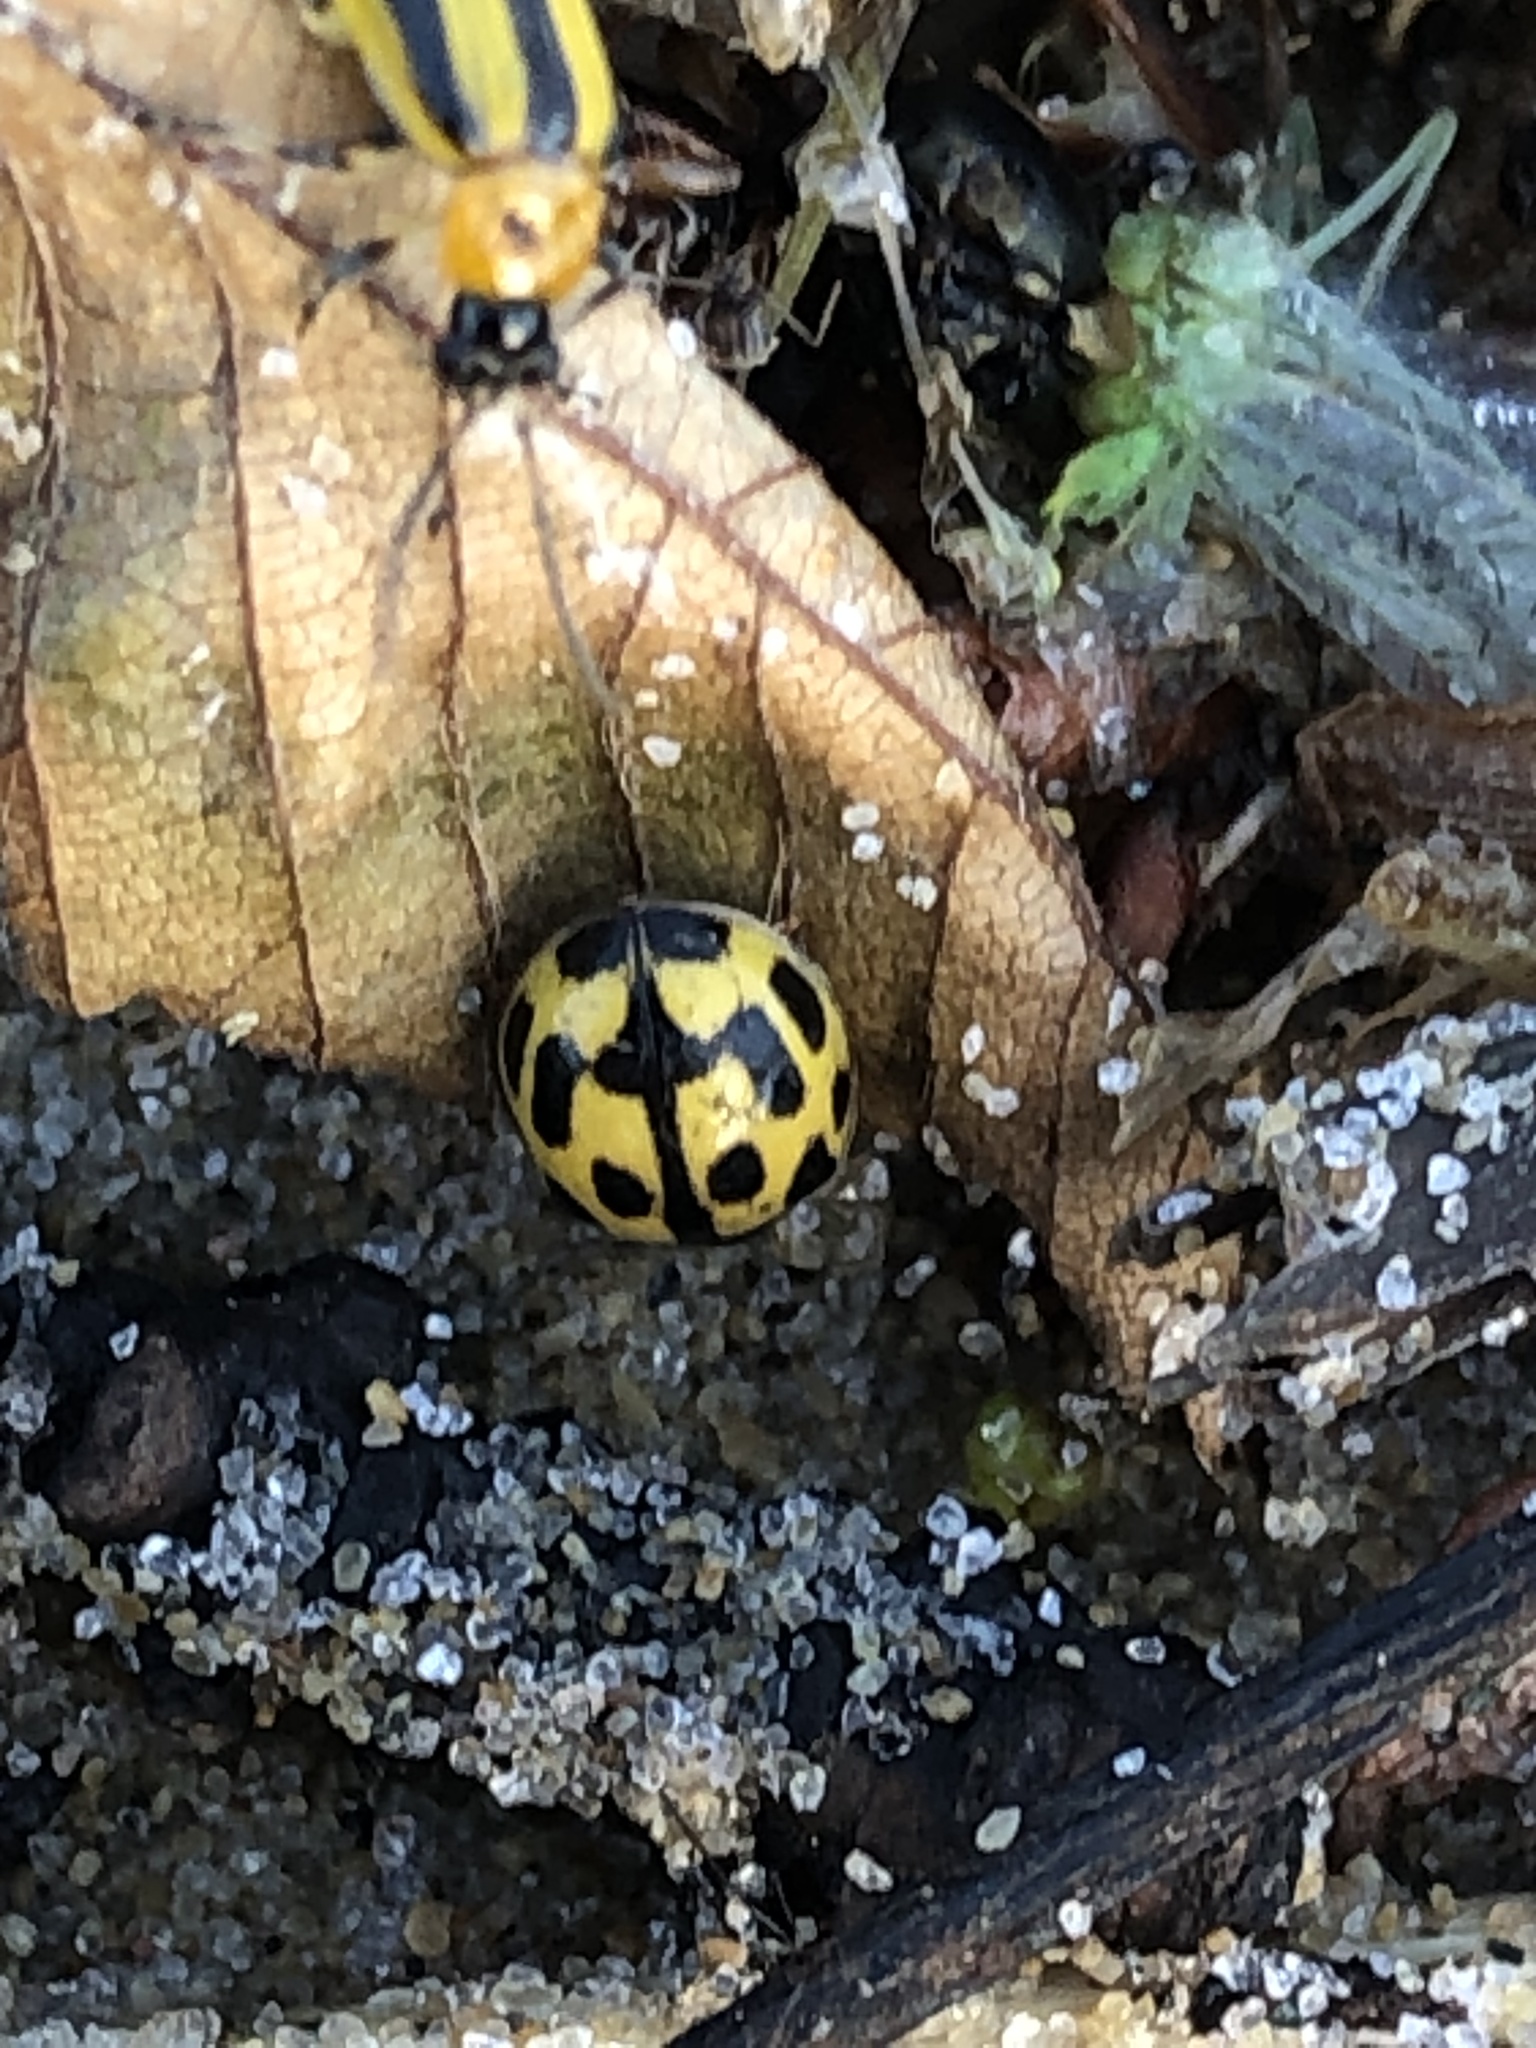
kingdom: Animalia
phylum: Arthropoda
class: Insecta
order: Coleoptera
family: Coccinellidae
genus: Propylaea
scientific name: Propylaea quatuordecimpunctata
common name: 14-spotted ladybird beetle
